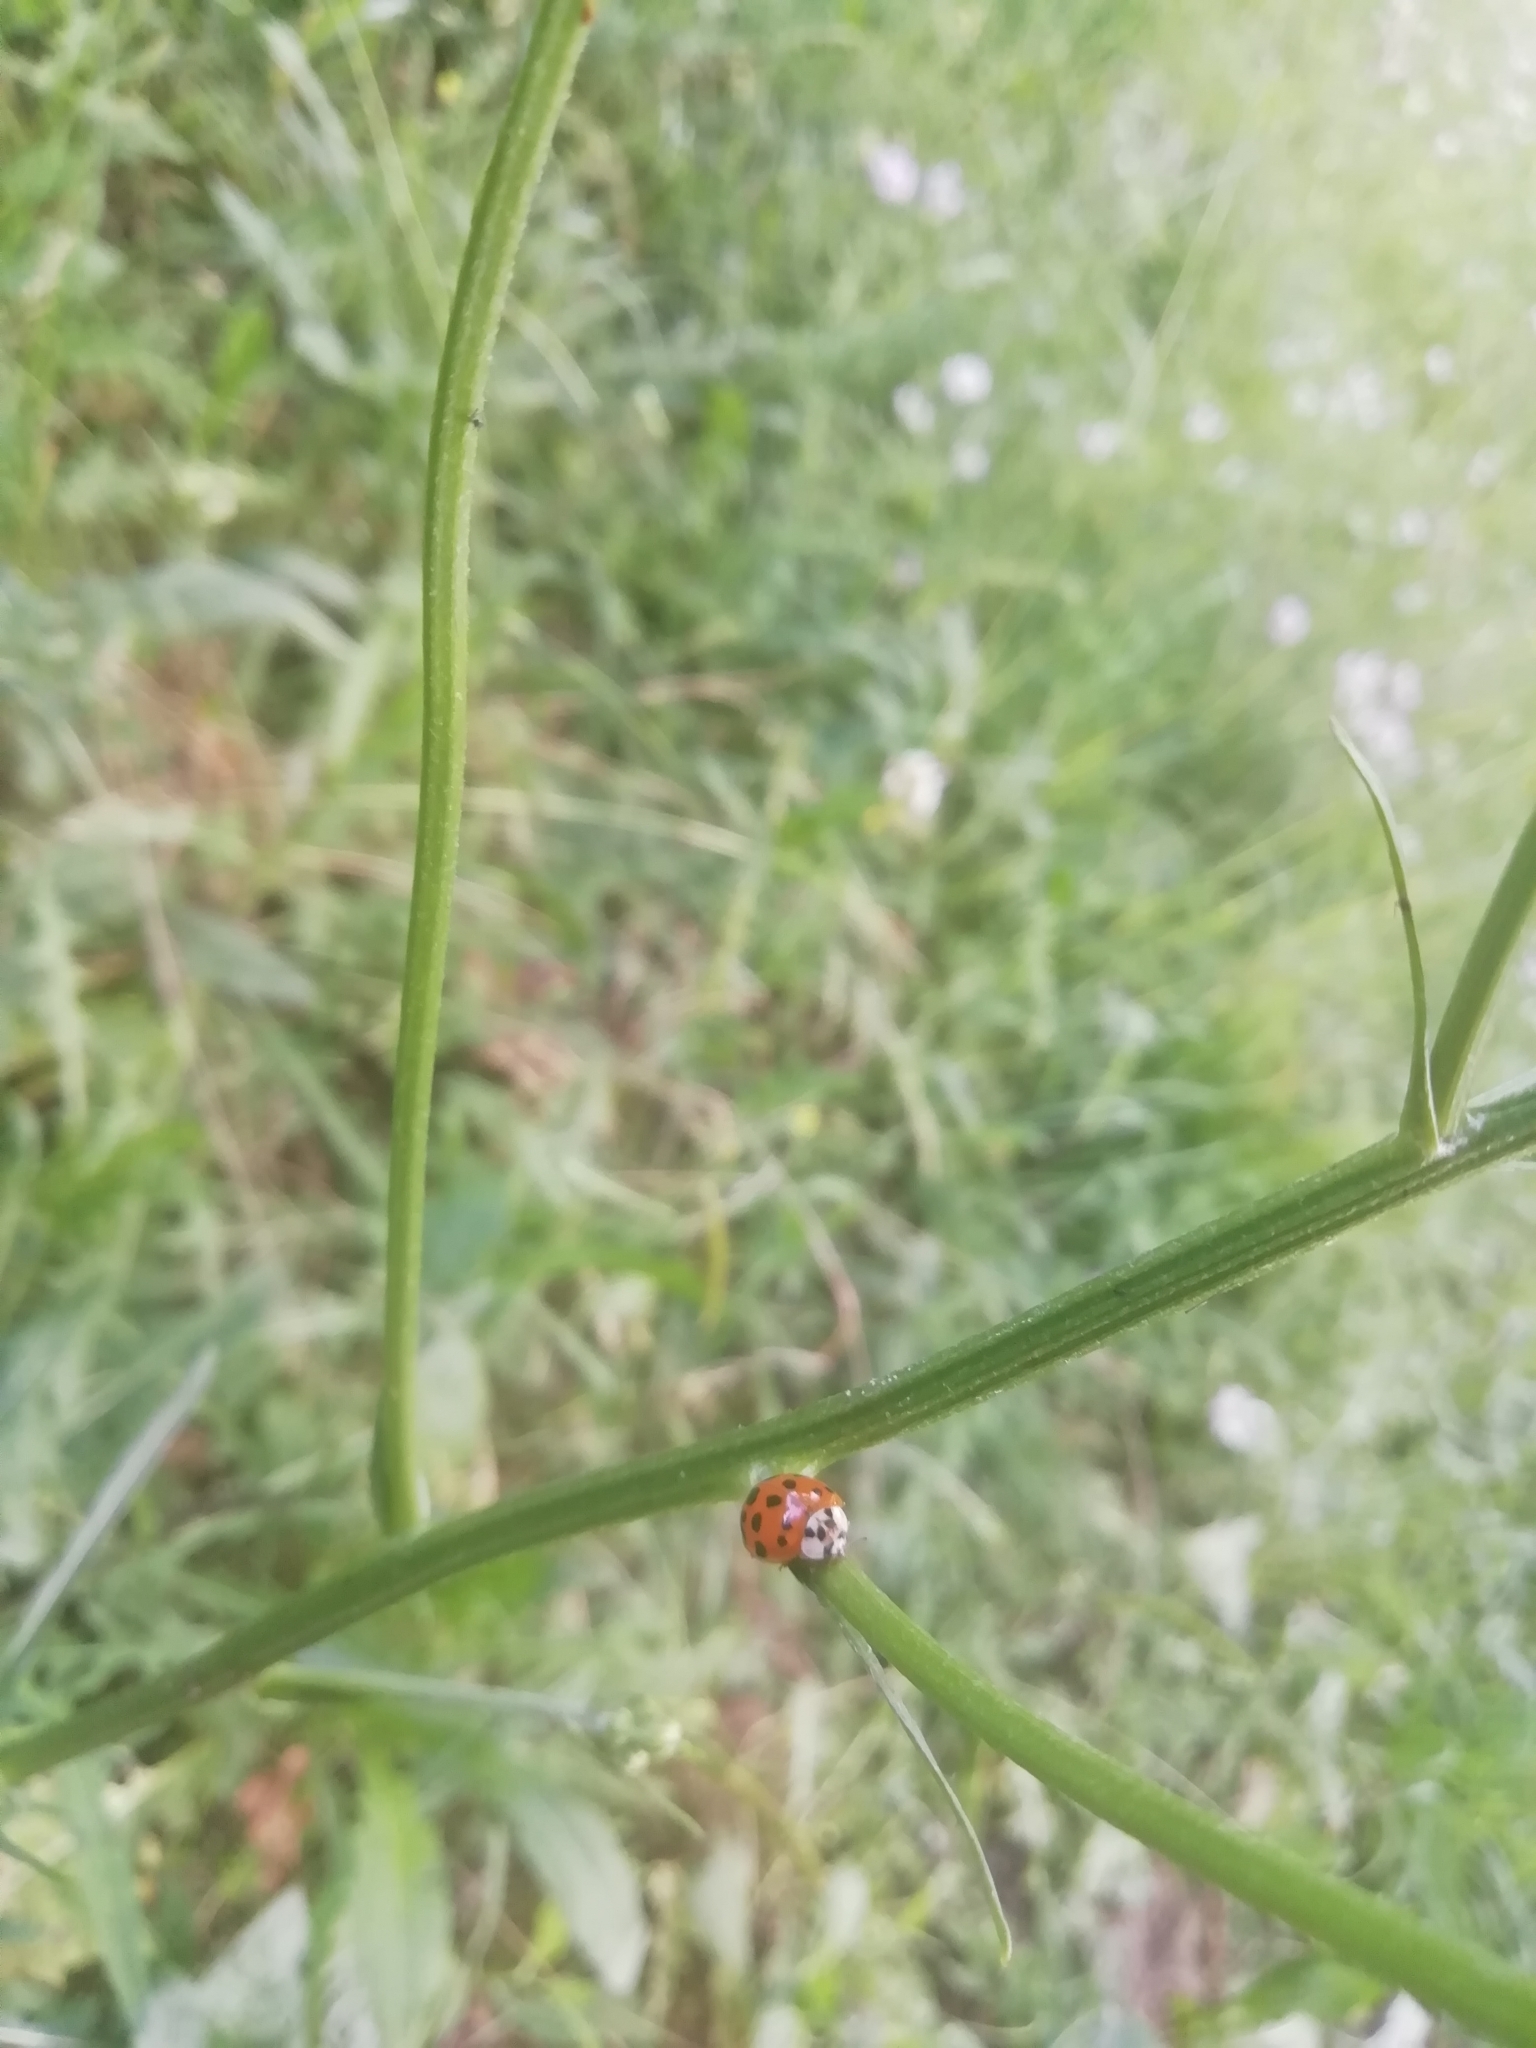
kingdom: Animalia
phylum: Arthropoda
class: Insecta
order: Coleoptera
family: Coccinellidae
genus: Harmonia
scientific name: Harmonia axyridis
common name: Harlequin ladybird
